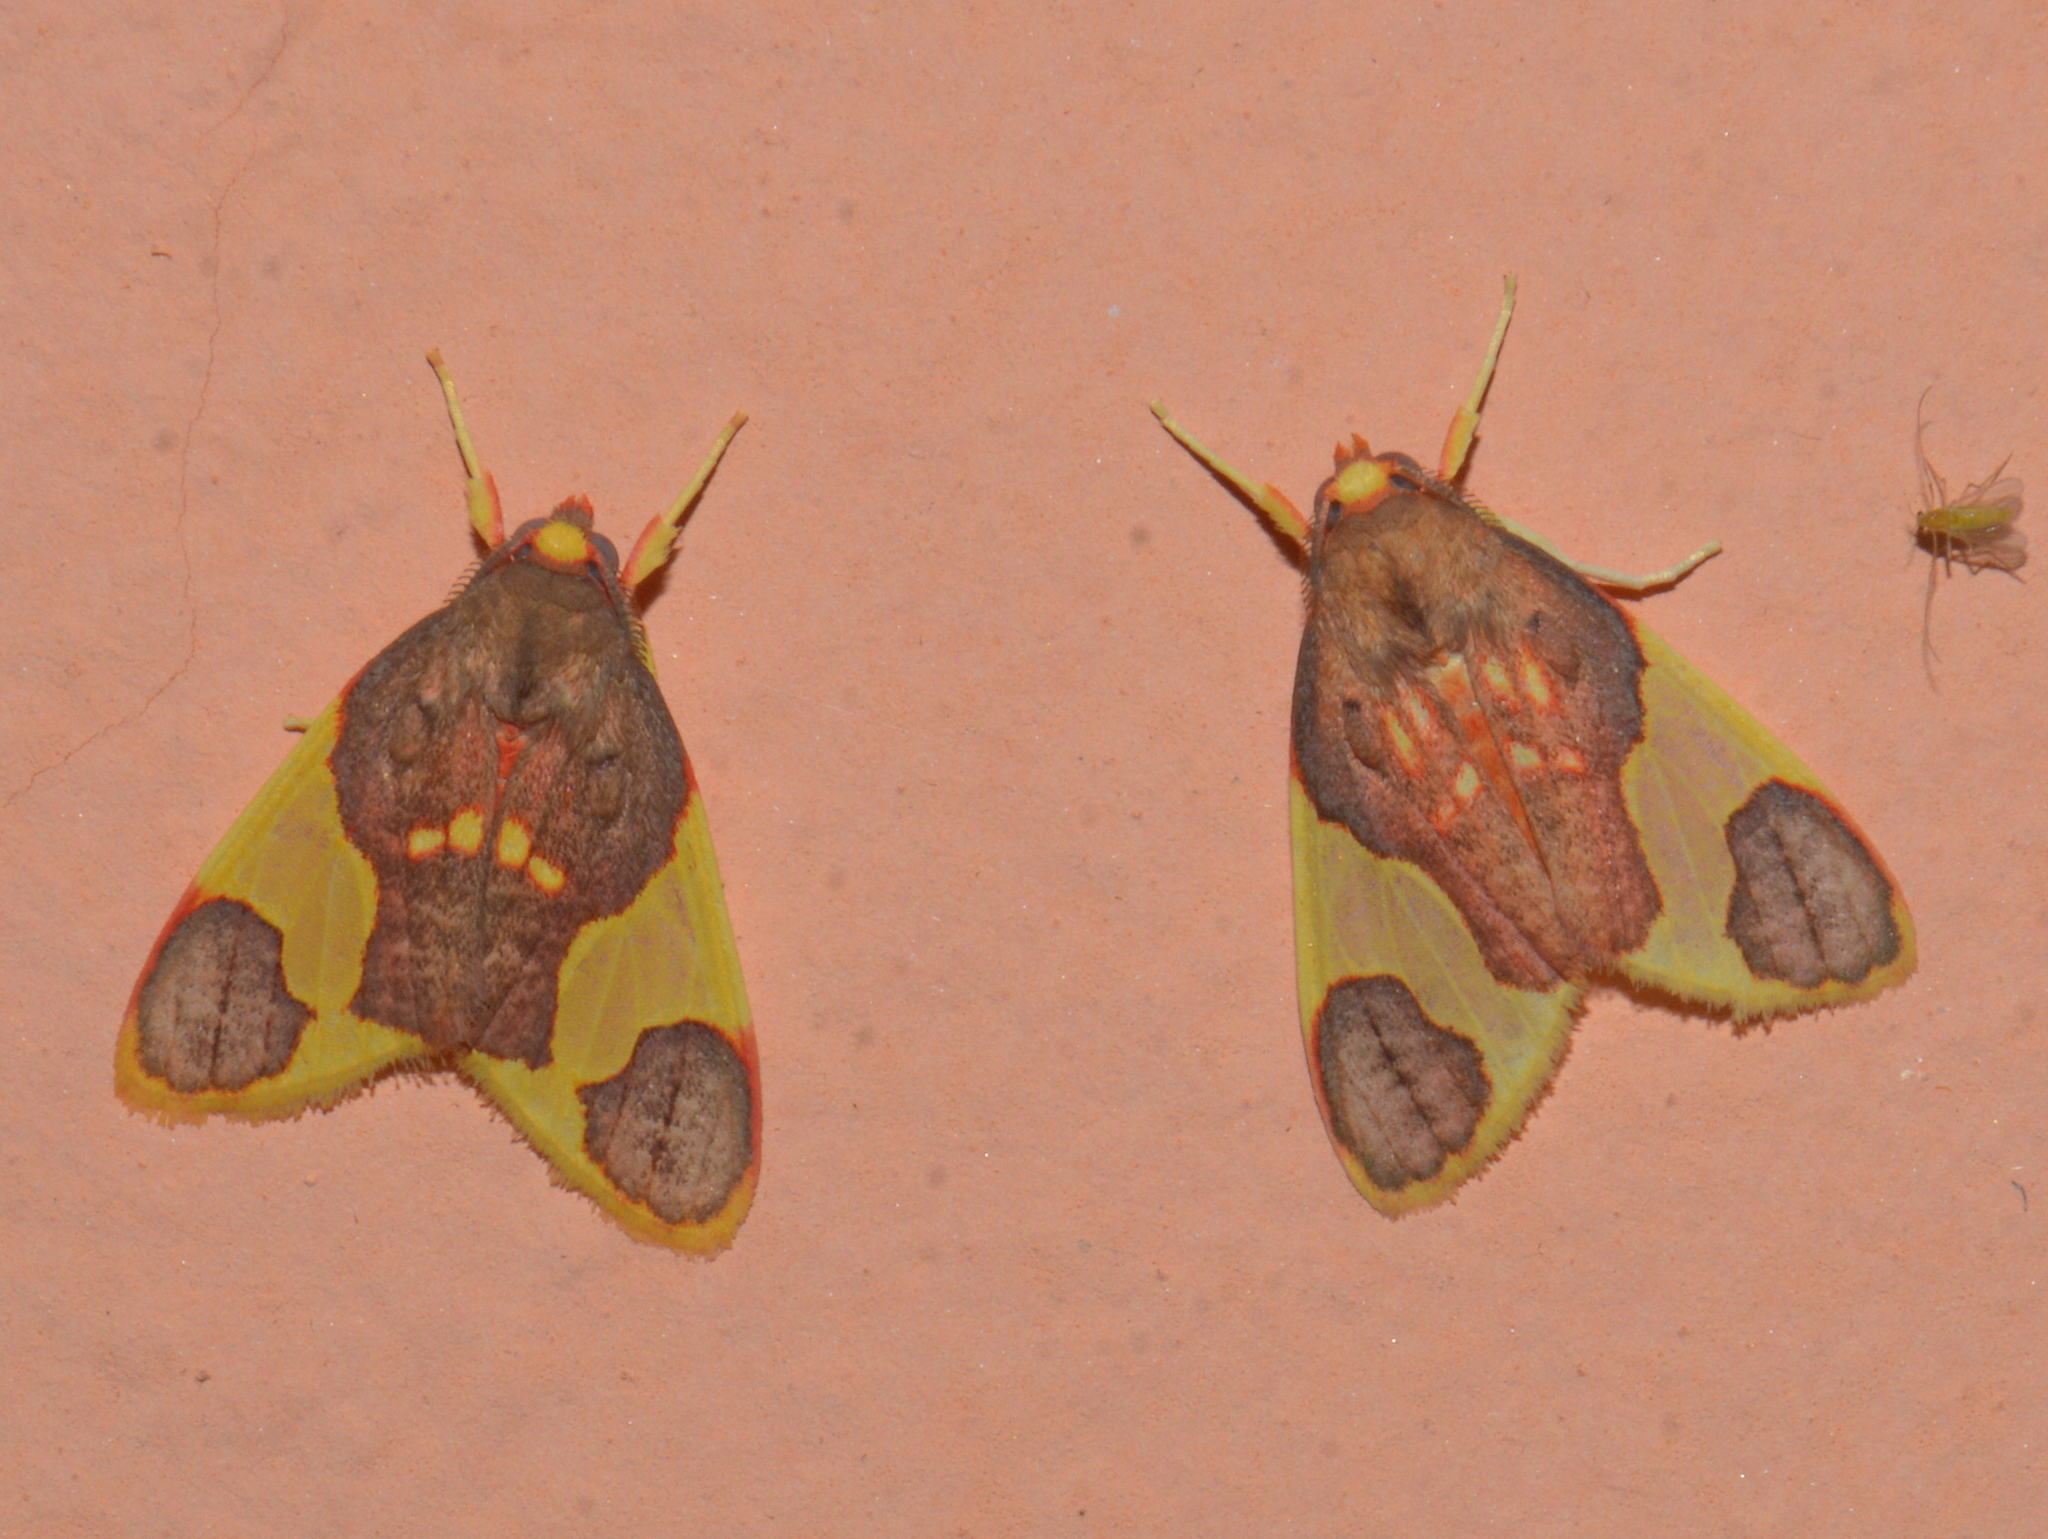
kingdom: Animalia
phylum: Arthropoda
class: Insecta
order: Lepidoptera
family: Erebidae
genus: Trichromia
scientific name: Trichromia
